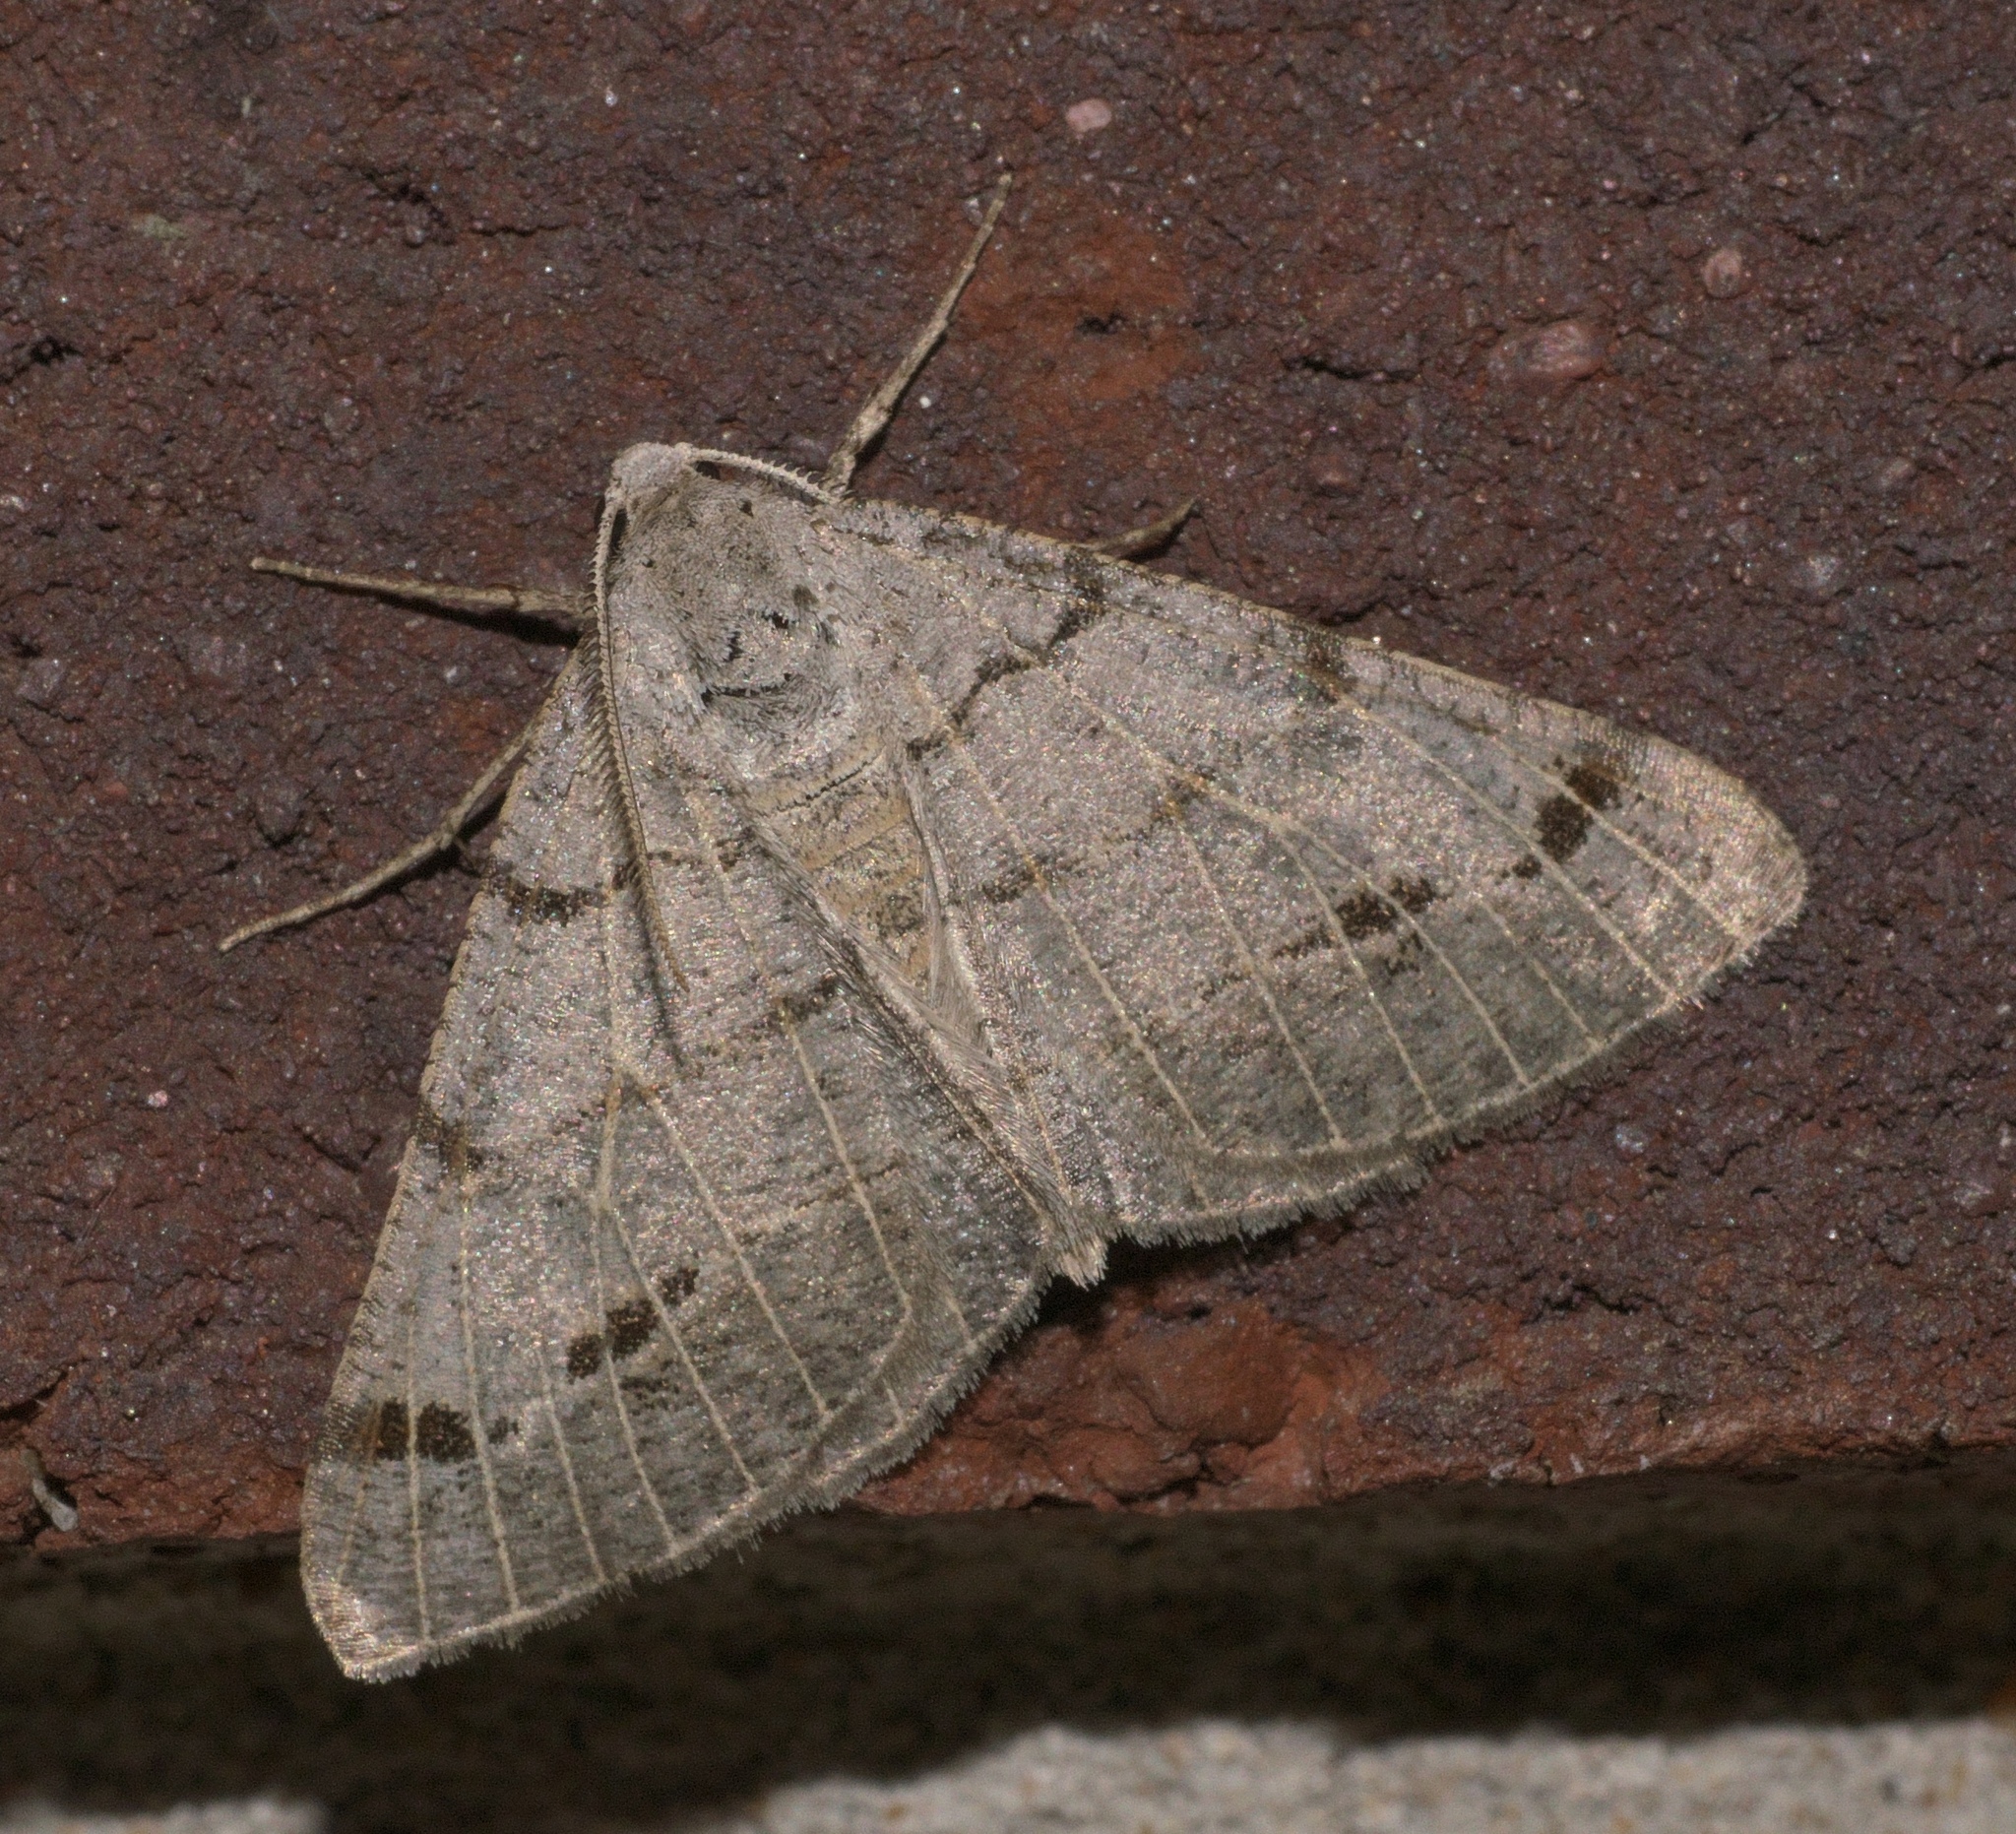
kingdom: Animalia
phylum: Arthropoda
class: Insecta
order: Lepidoptera
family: Geometridae
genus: Isturgia
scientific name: Isturgia dislocaria
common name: Pale-viened enconista
